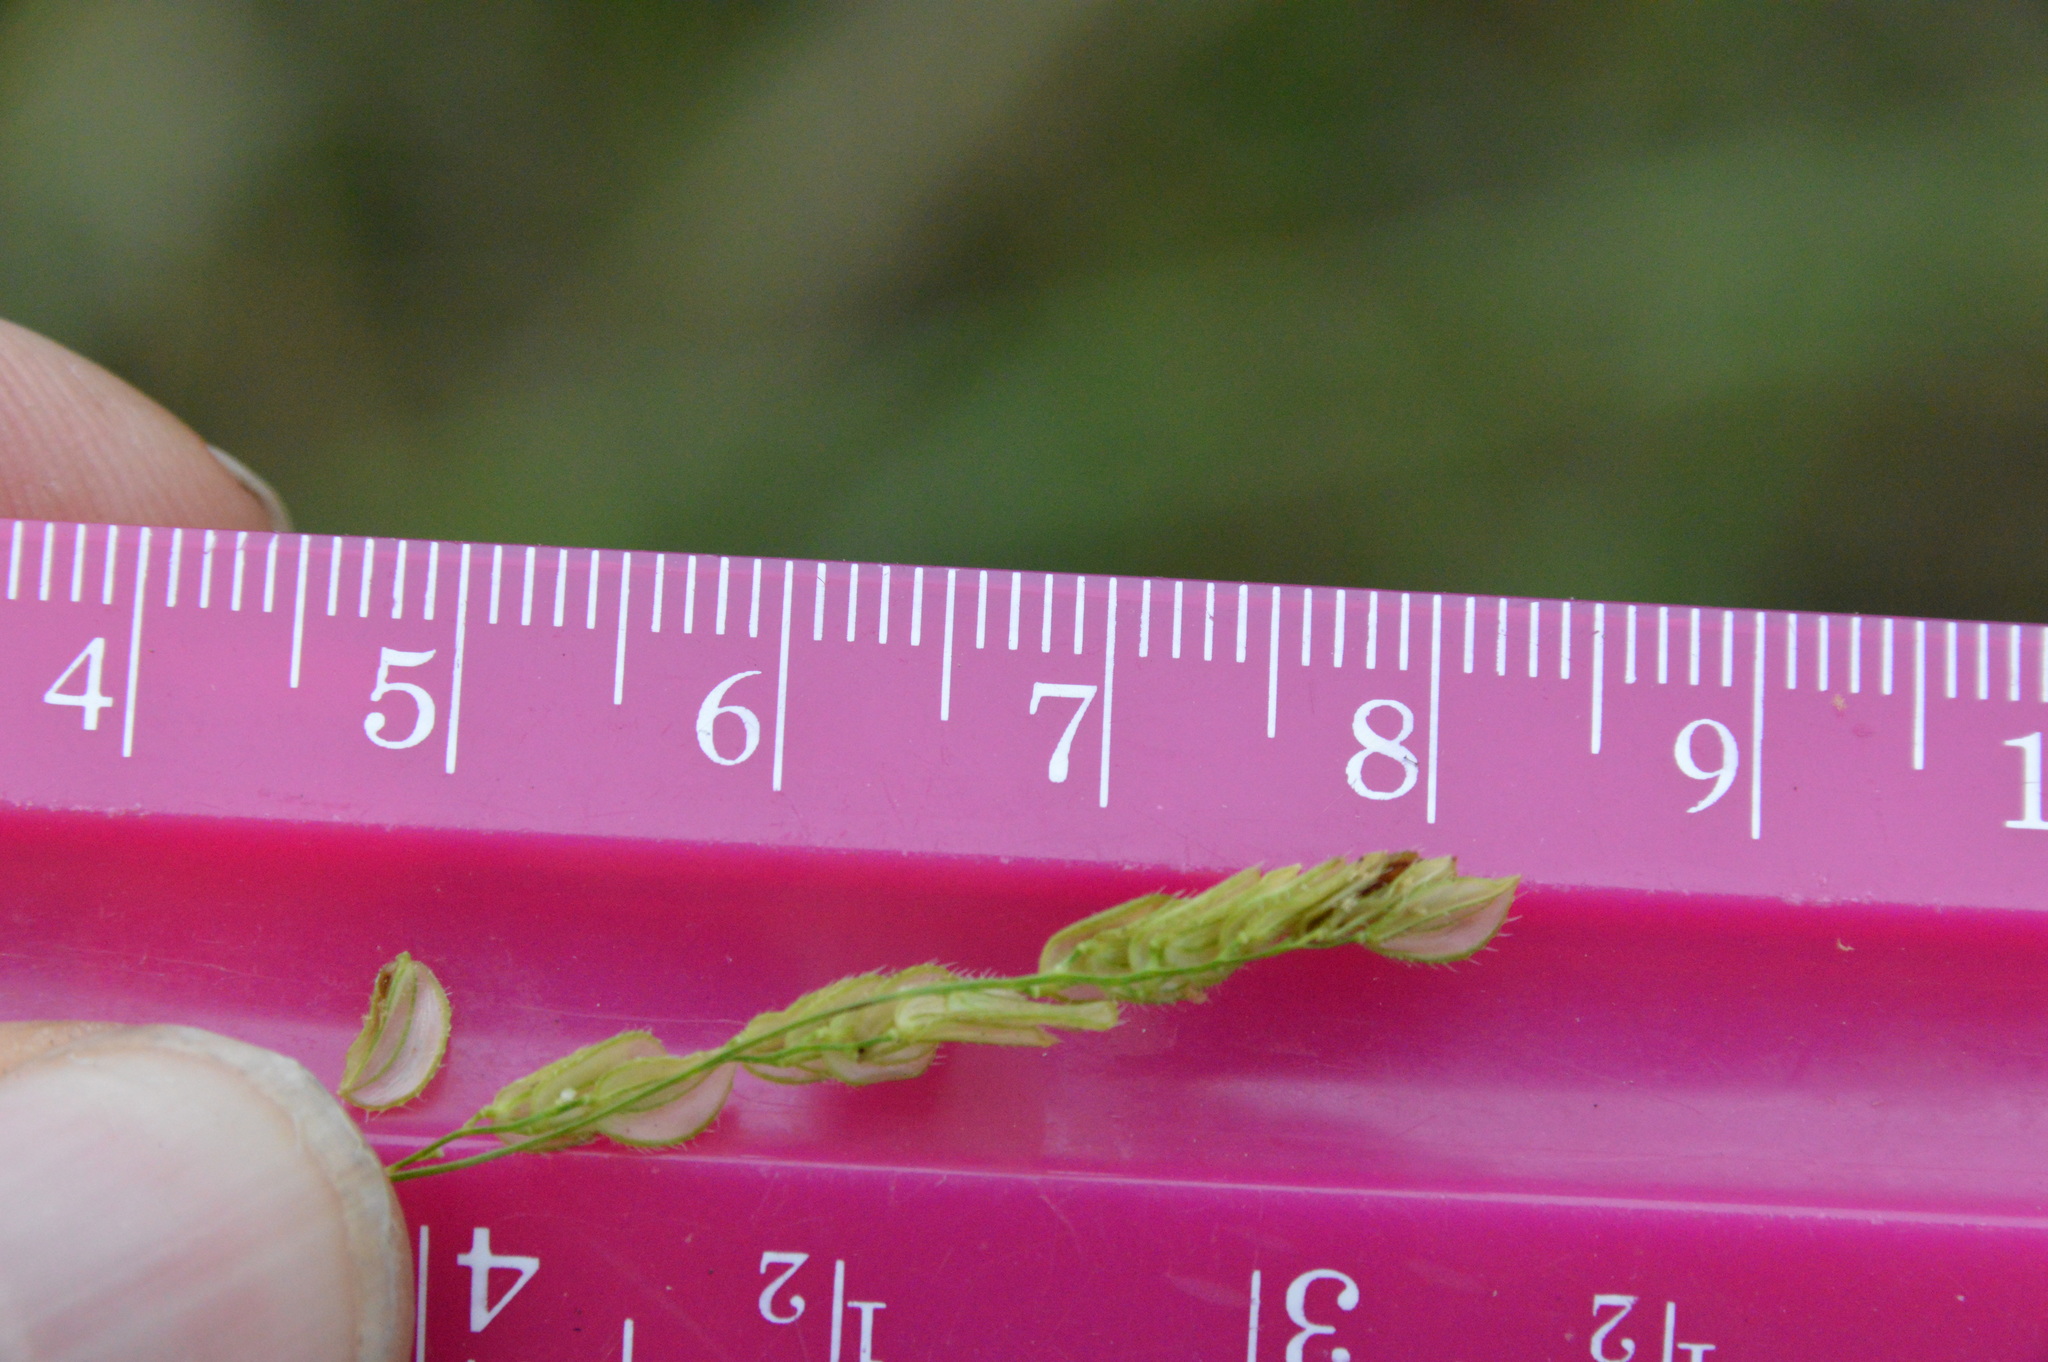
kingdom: Plantae
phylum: Tracheophyta
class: Liliopsida
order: Poales
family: Poaceae
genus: Leersia
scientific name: Leersia lenticularis
